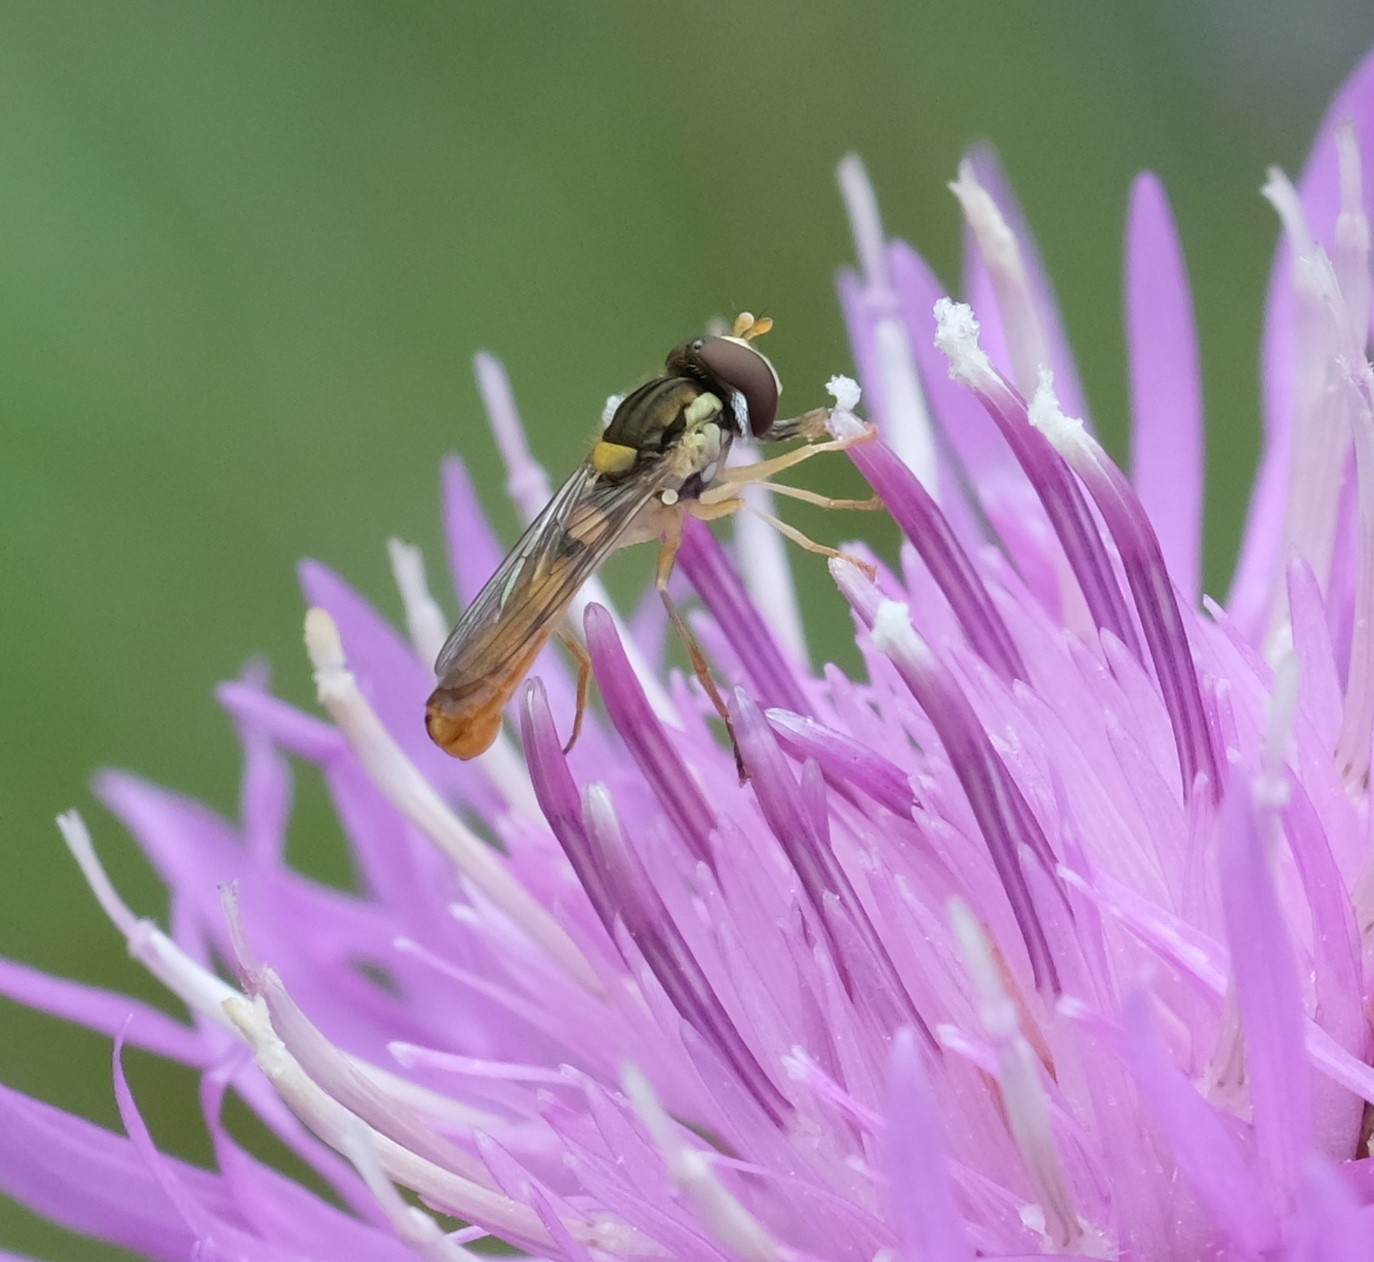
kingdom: Animalia
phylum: Arthropoda
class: Insecta
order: Diptera
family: Syrphidae
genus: Sphaerophoria
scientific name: Sphaerophoria contigua
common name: Tufted globetail
